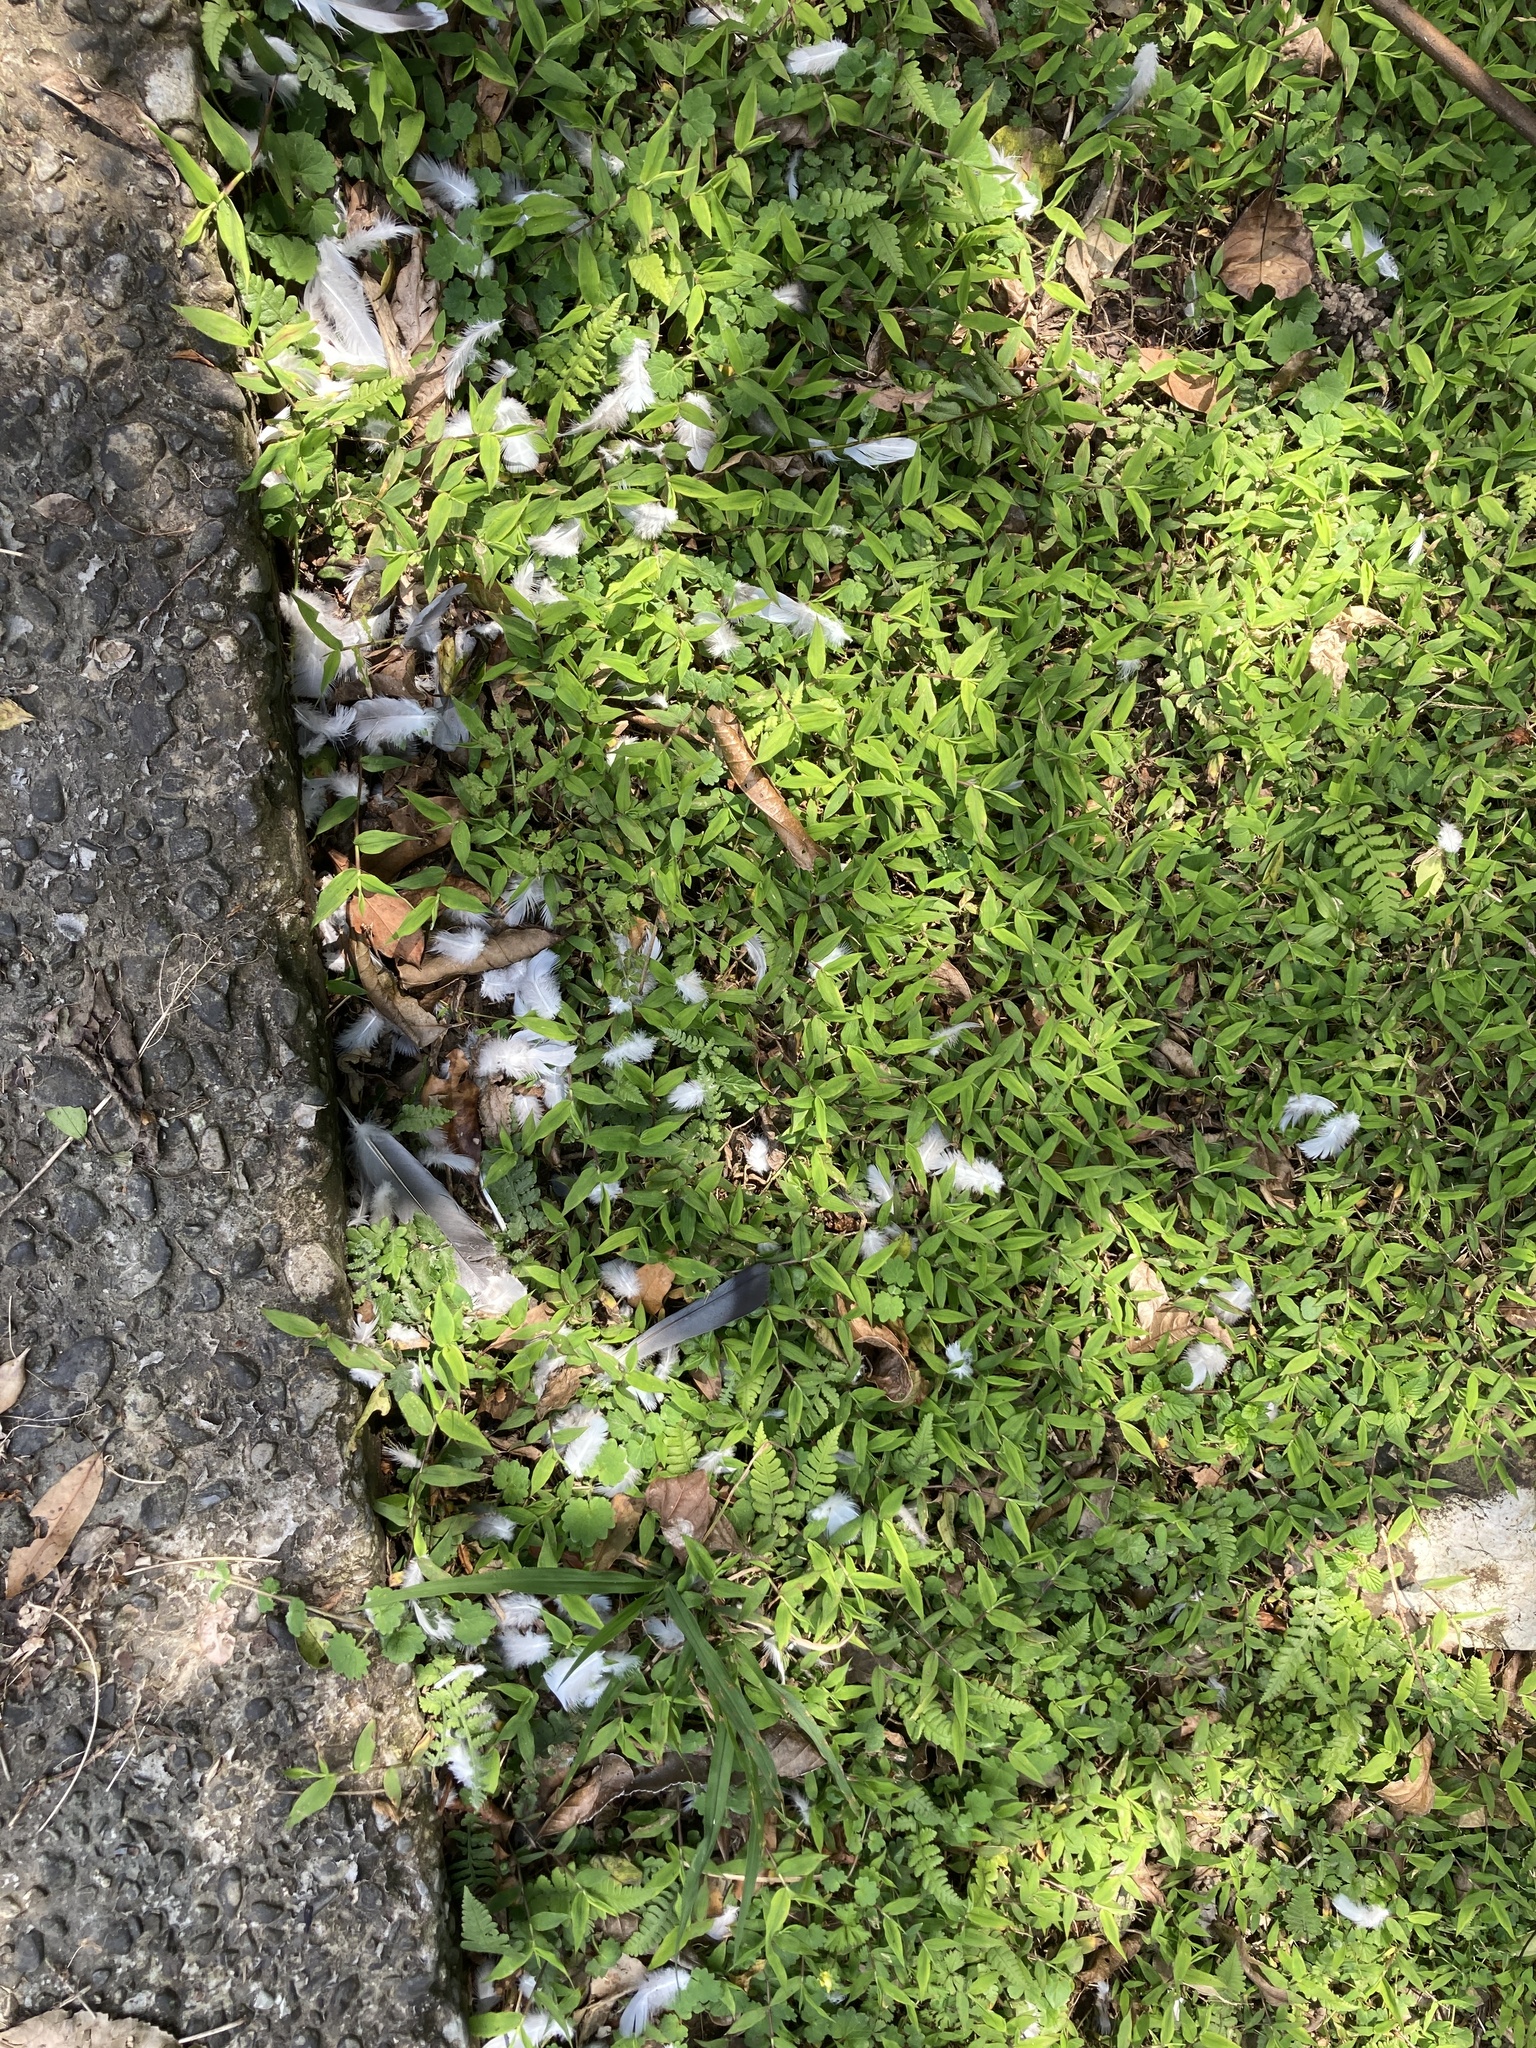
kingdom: Animalia
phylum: Chordata
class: Aves
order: Columbiformes
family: Columbidae
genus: Columba
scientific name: Columba livia
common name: Rock pigeon
